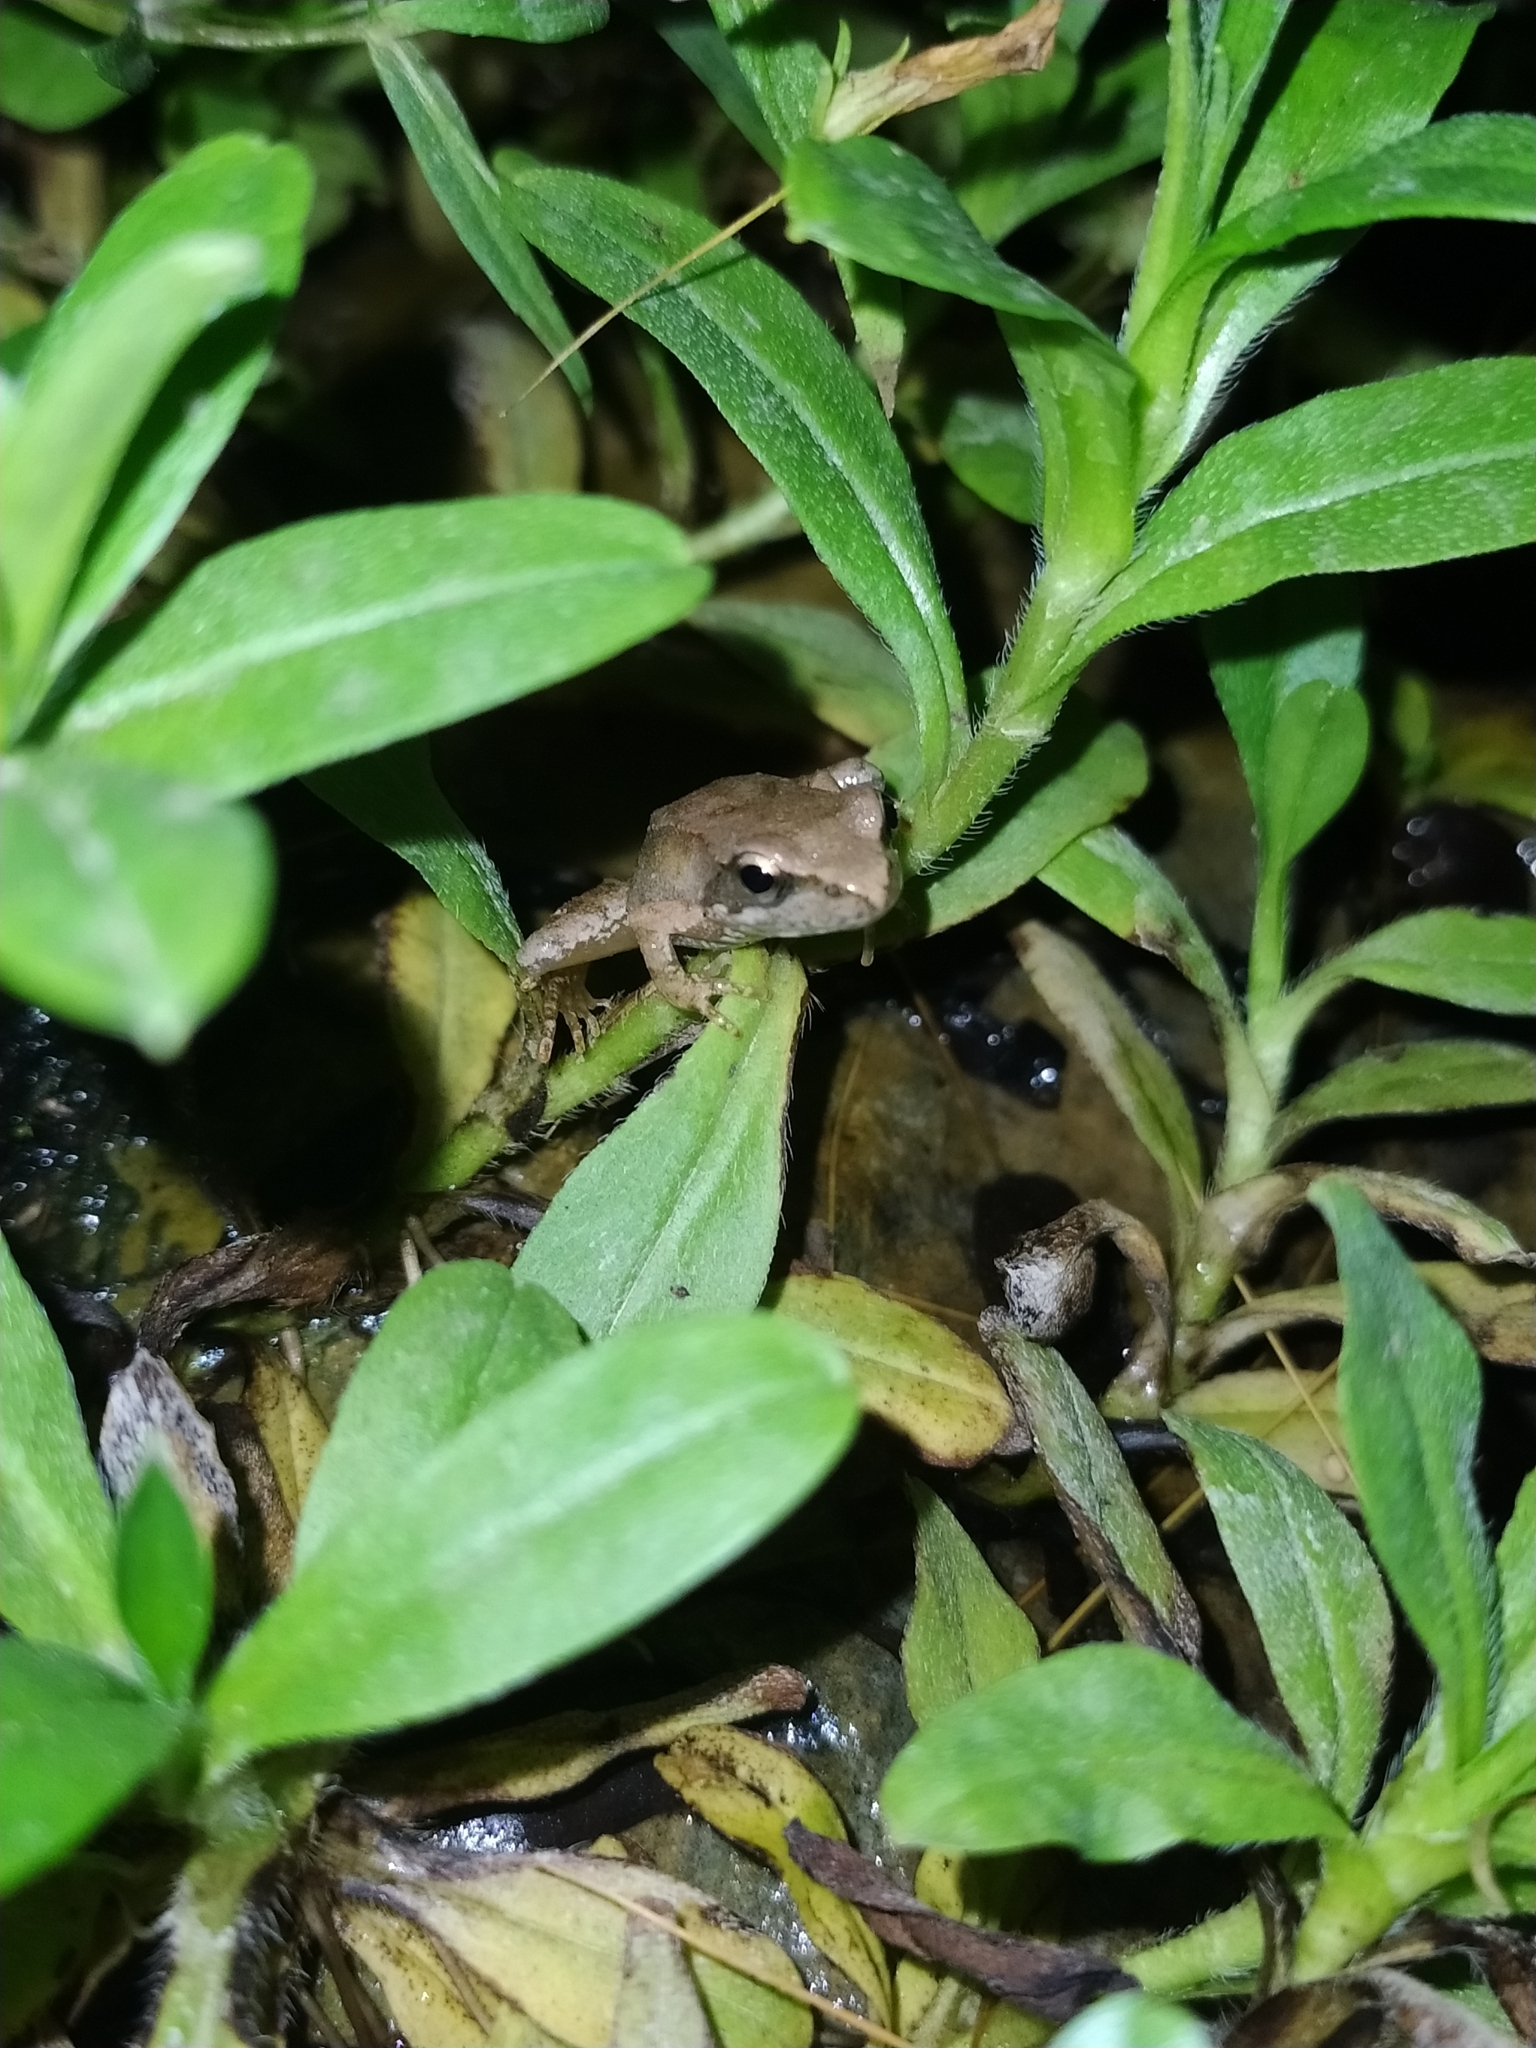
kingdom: Animalia
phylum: Chordata
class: Amphibia
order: Anura
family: Ranidae
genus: Rana
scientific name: Rana italica
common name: Italian stream frog
